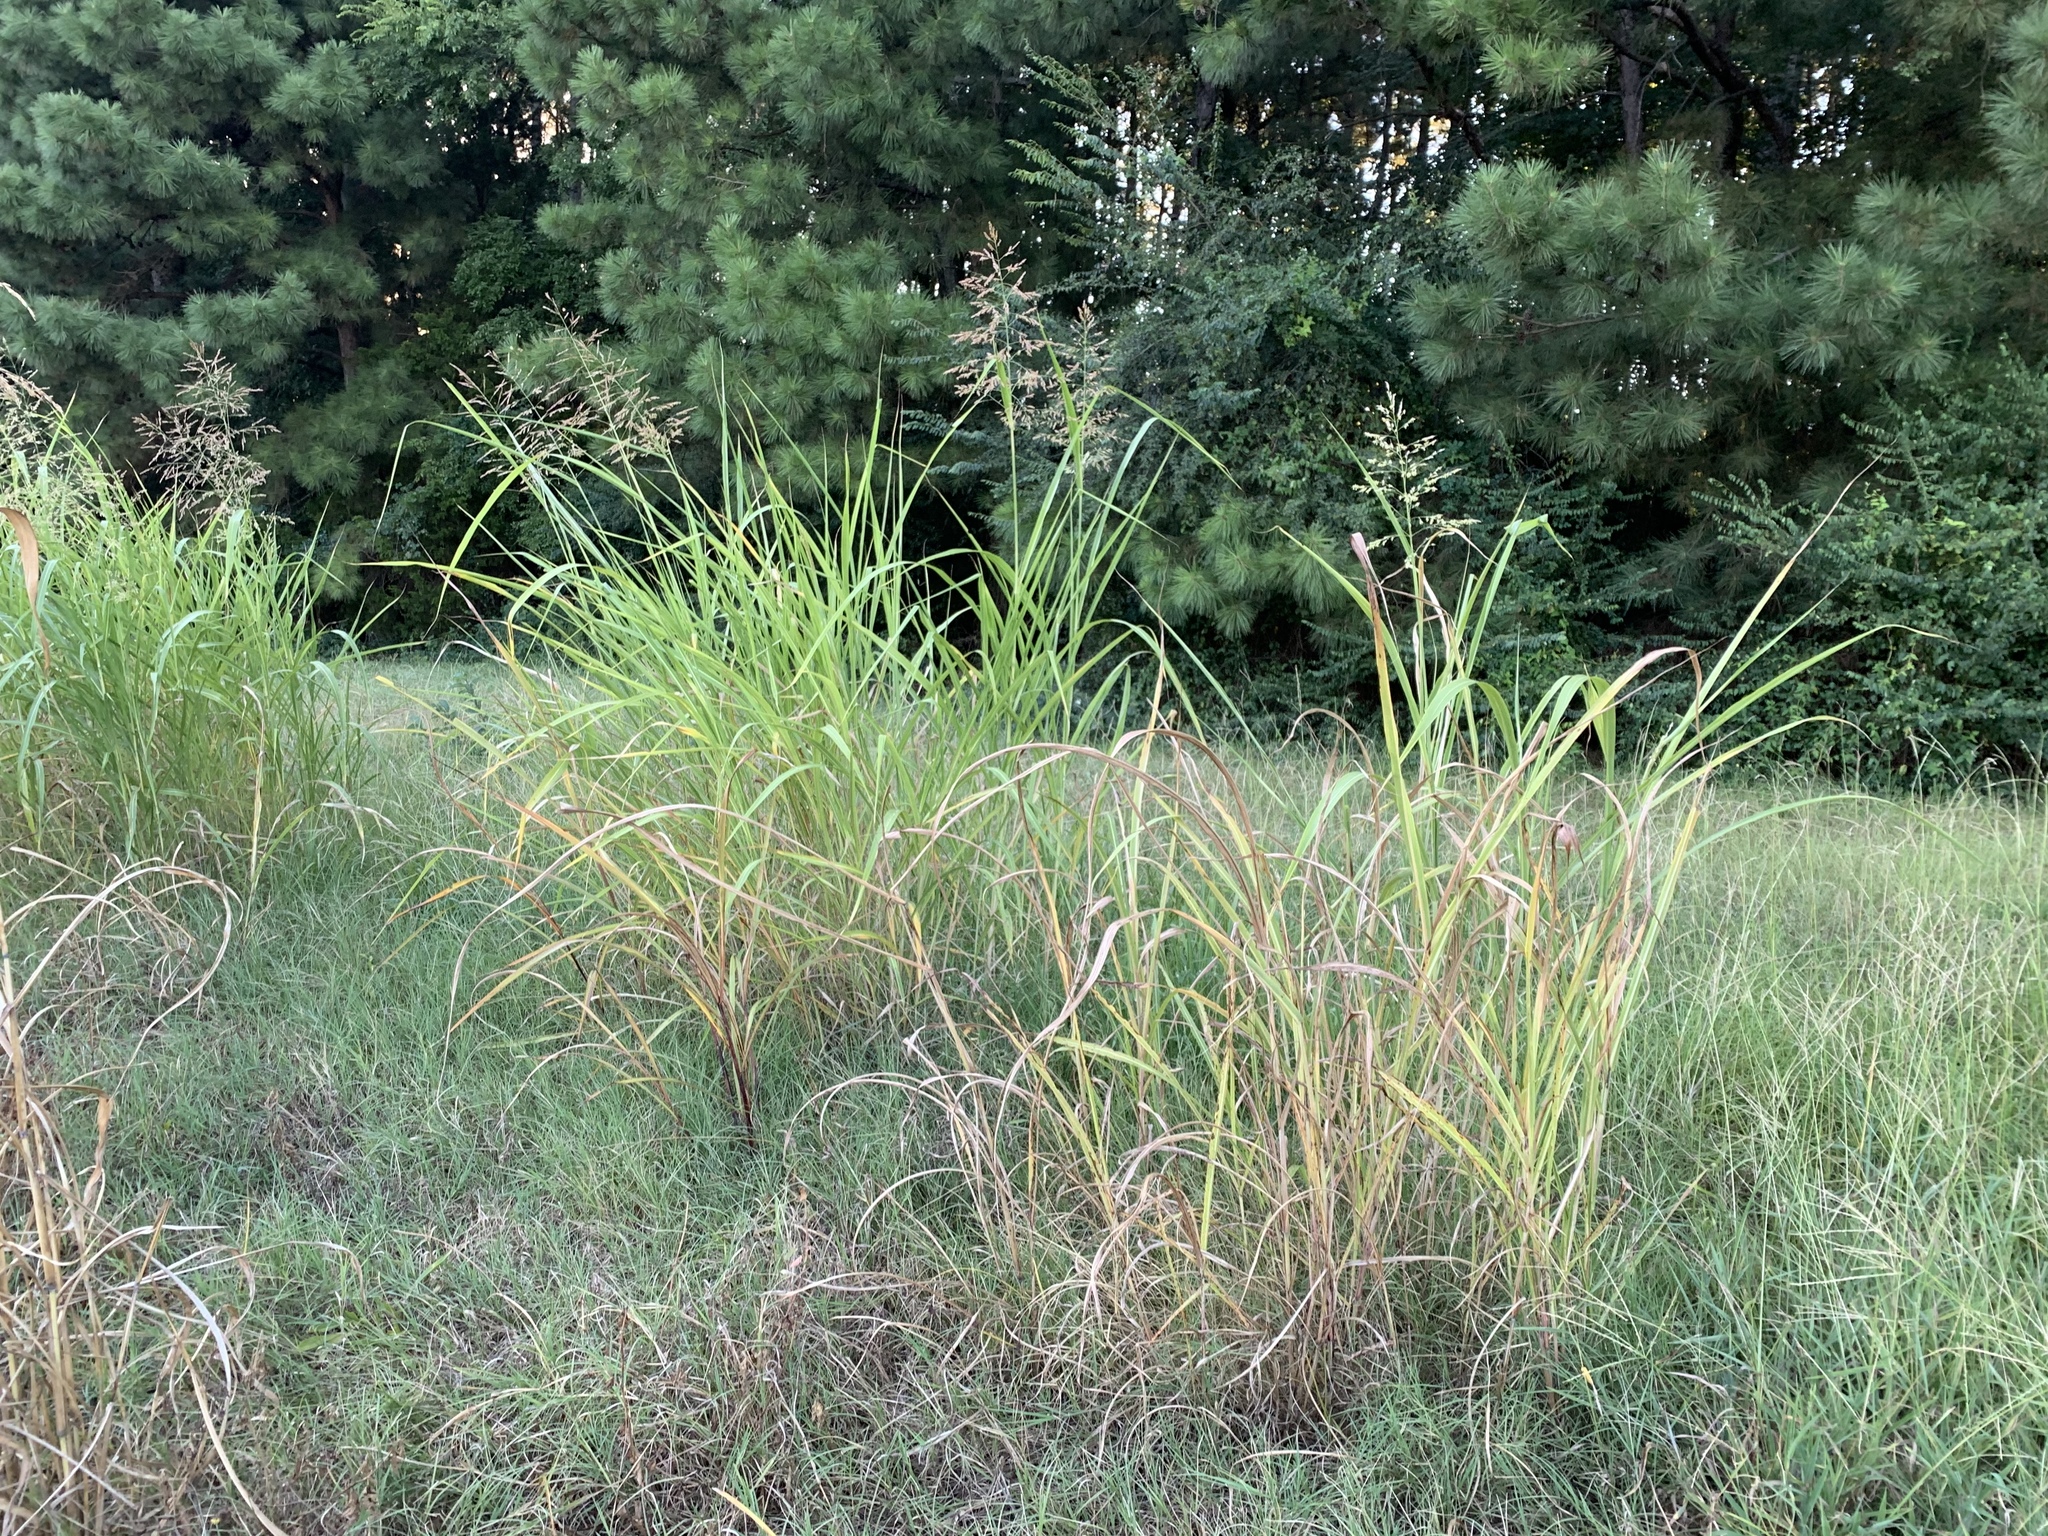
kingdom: Plantae
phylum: Tracheophyta
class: Liliopsida
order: Poales
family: Poaceae
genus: Sorghum
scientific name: Sorghum halepense
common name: Johnson-grass
